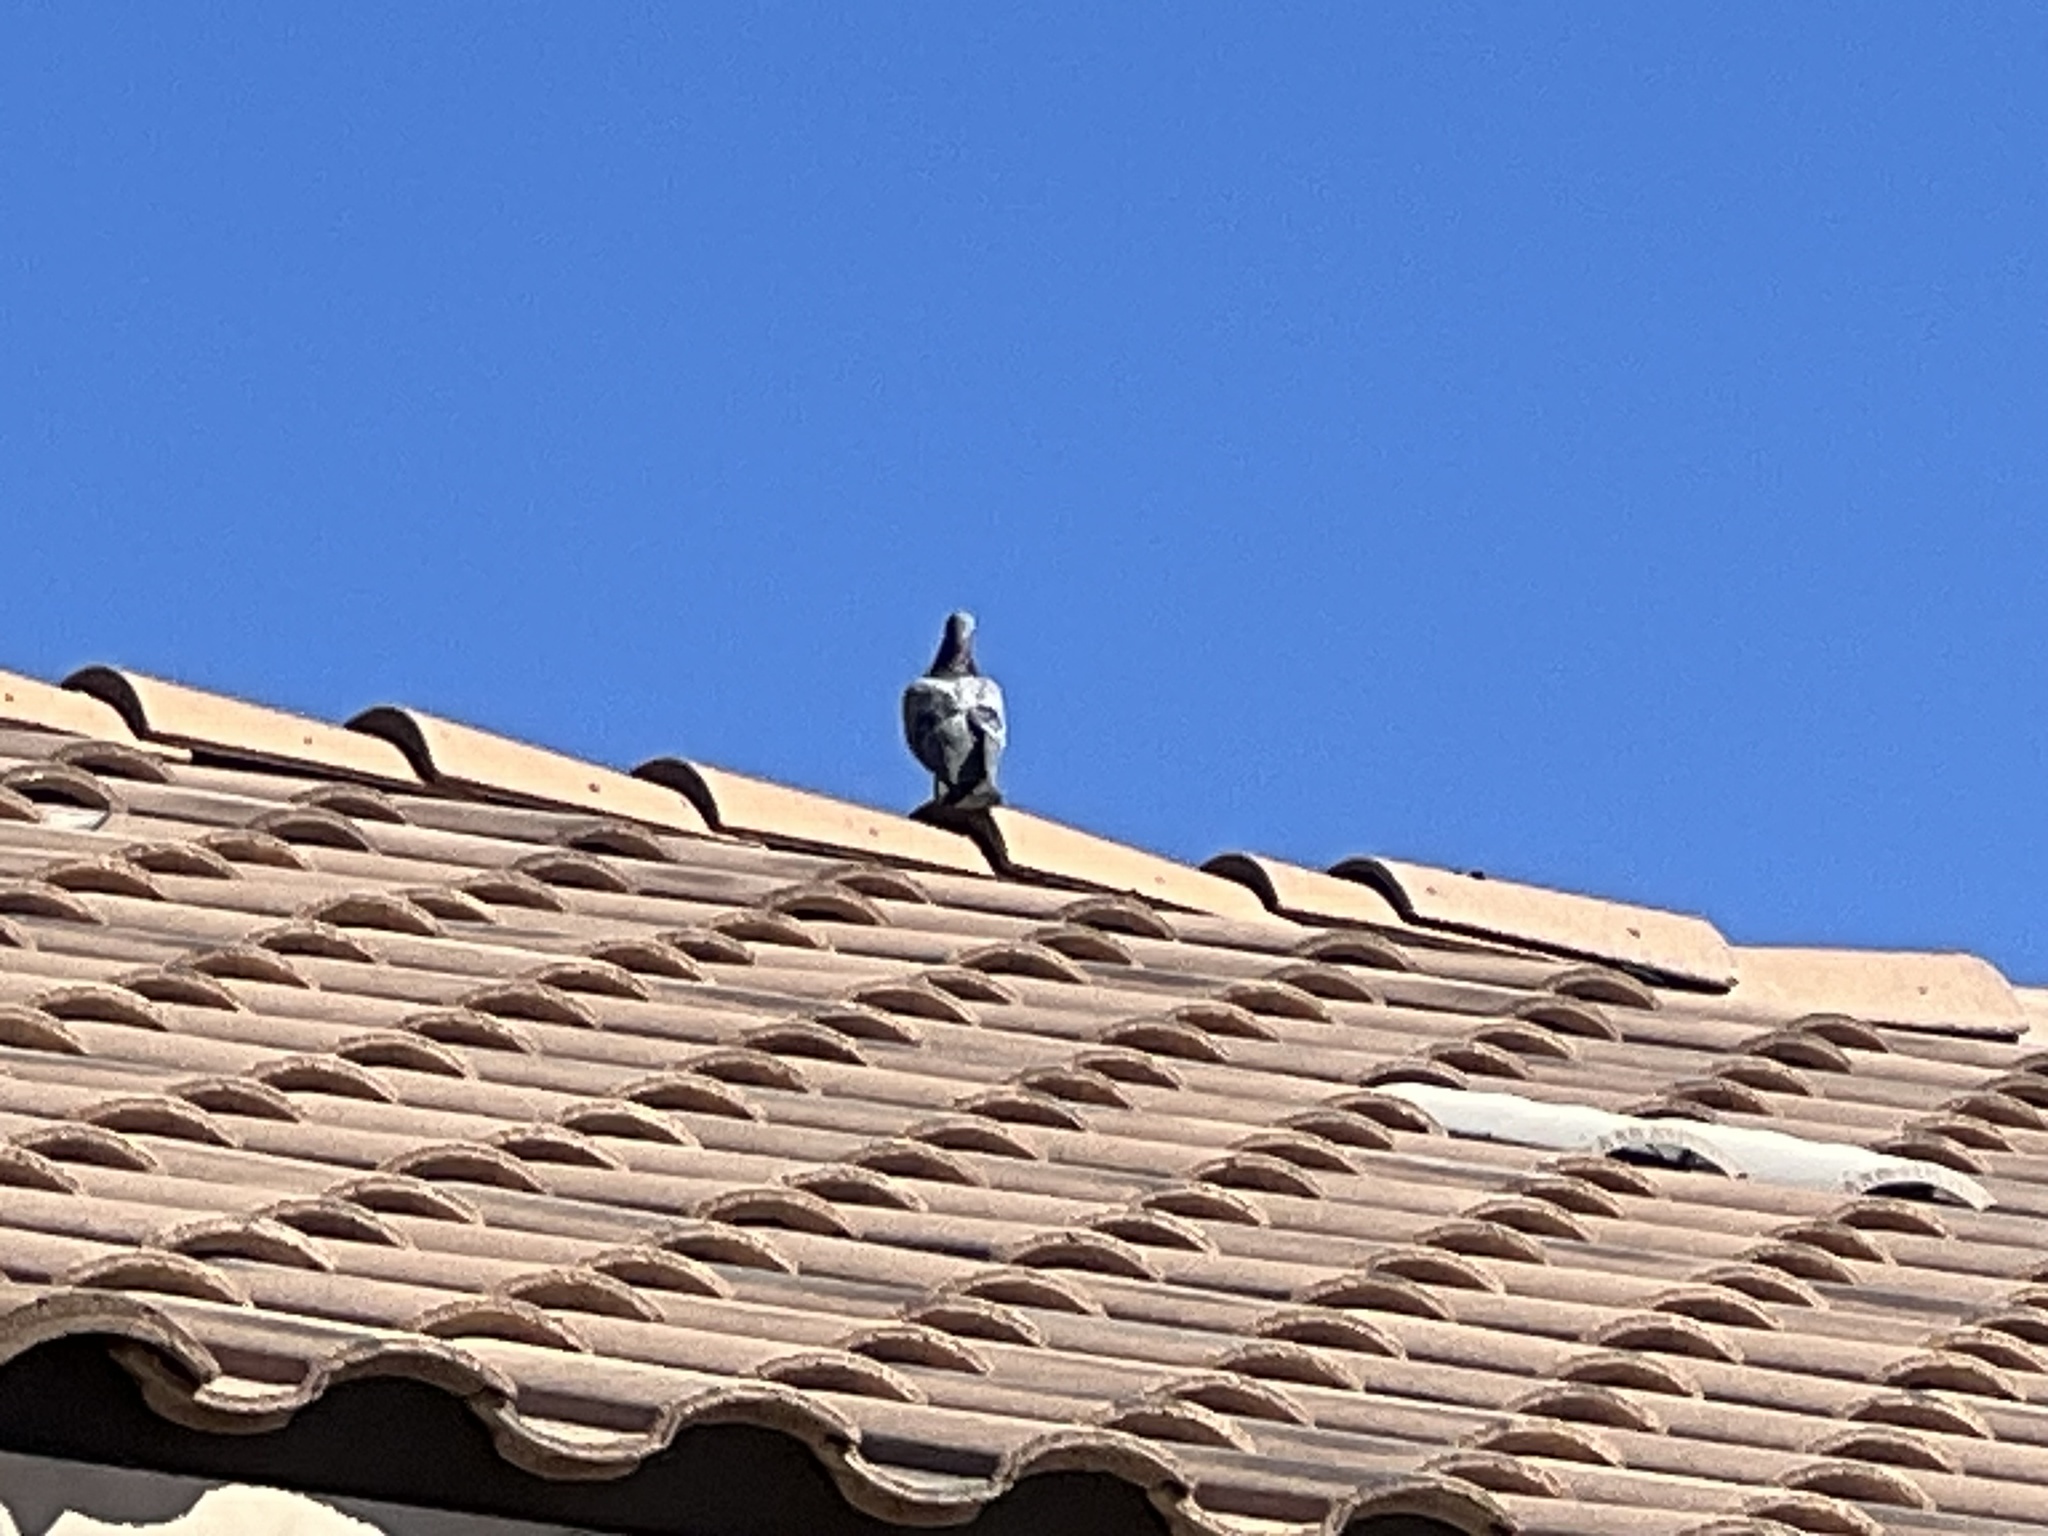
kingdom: Animalia
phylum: Chordata
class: Aves
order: Columbiformes
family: Columbidae
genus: Columba
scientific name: Columba livia
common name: Rock pigeon
